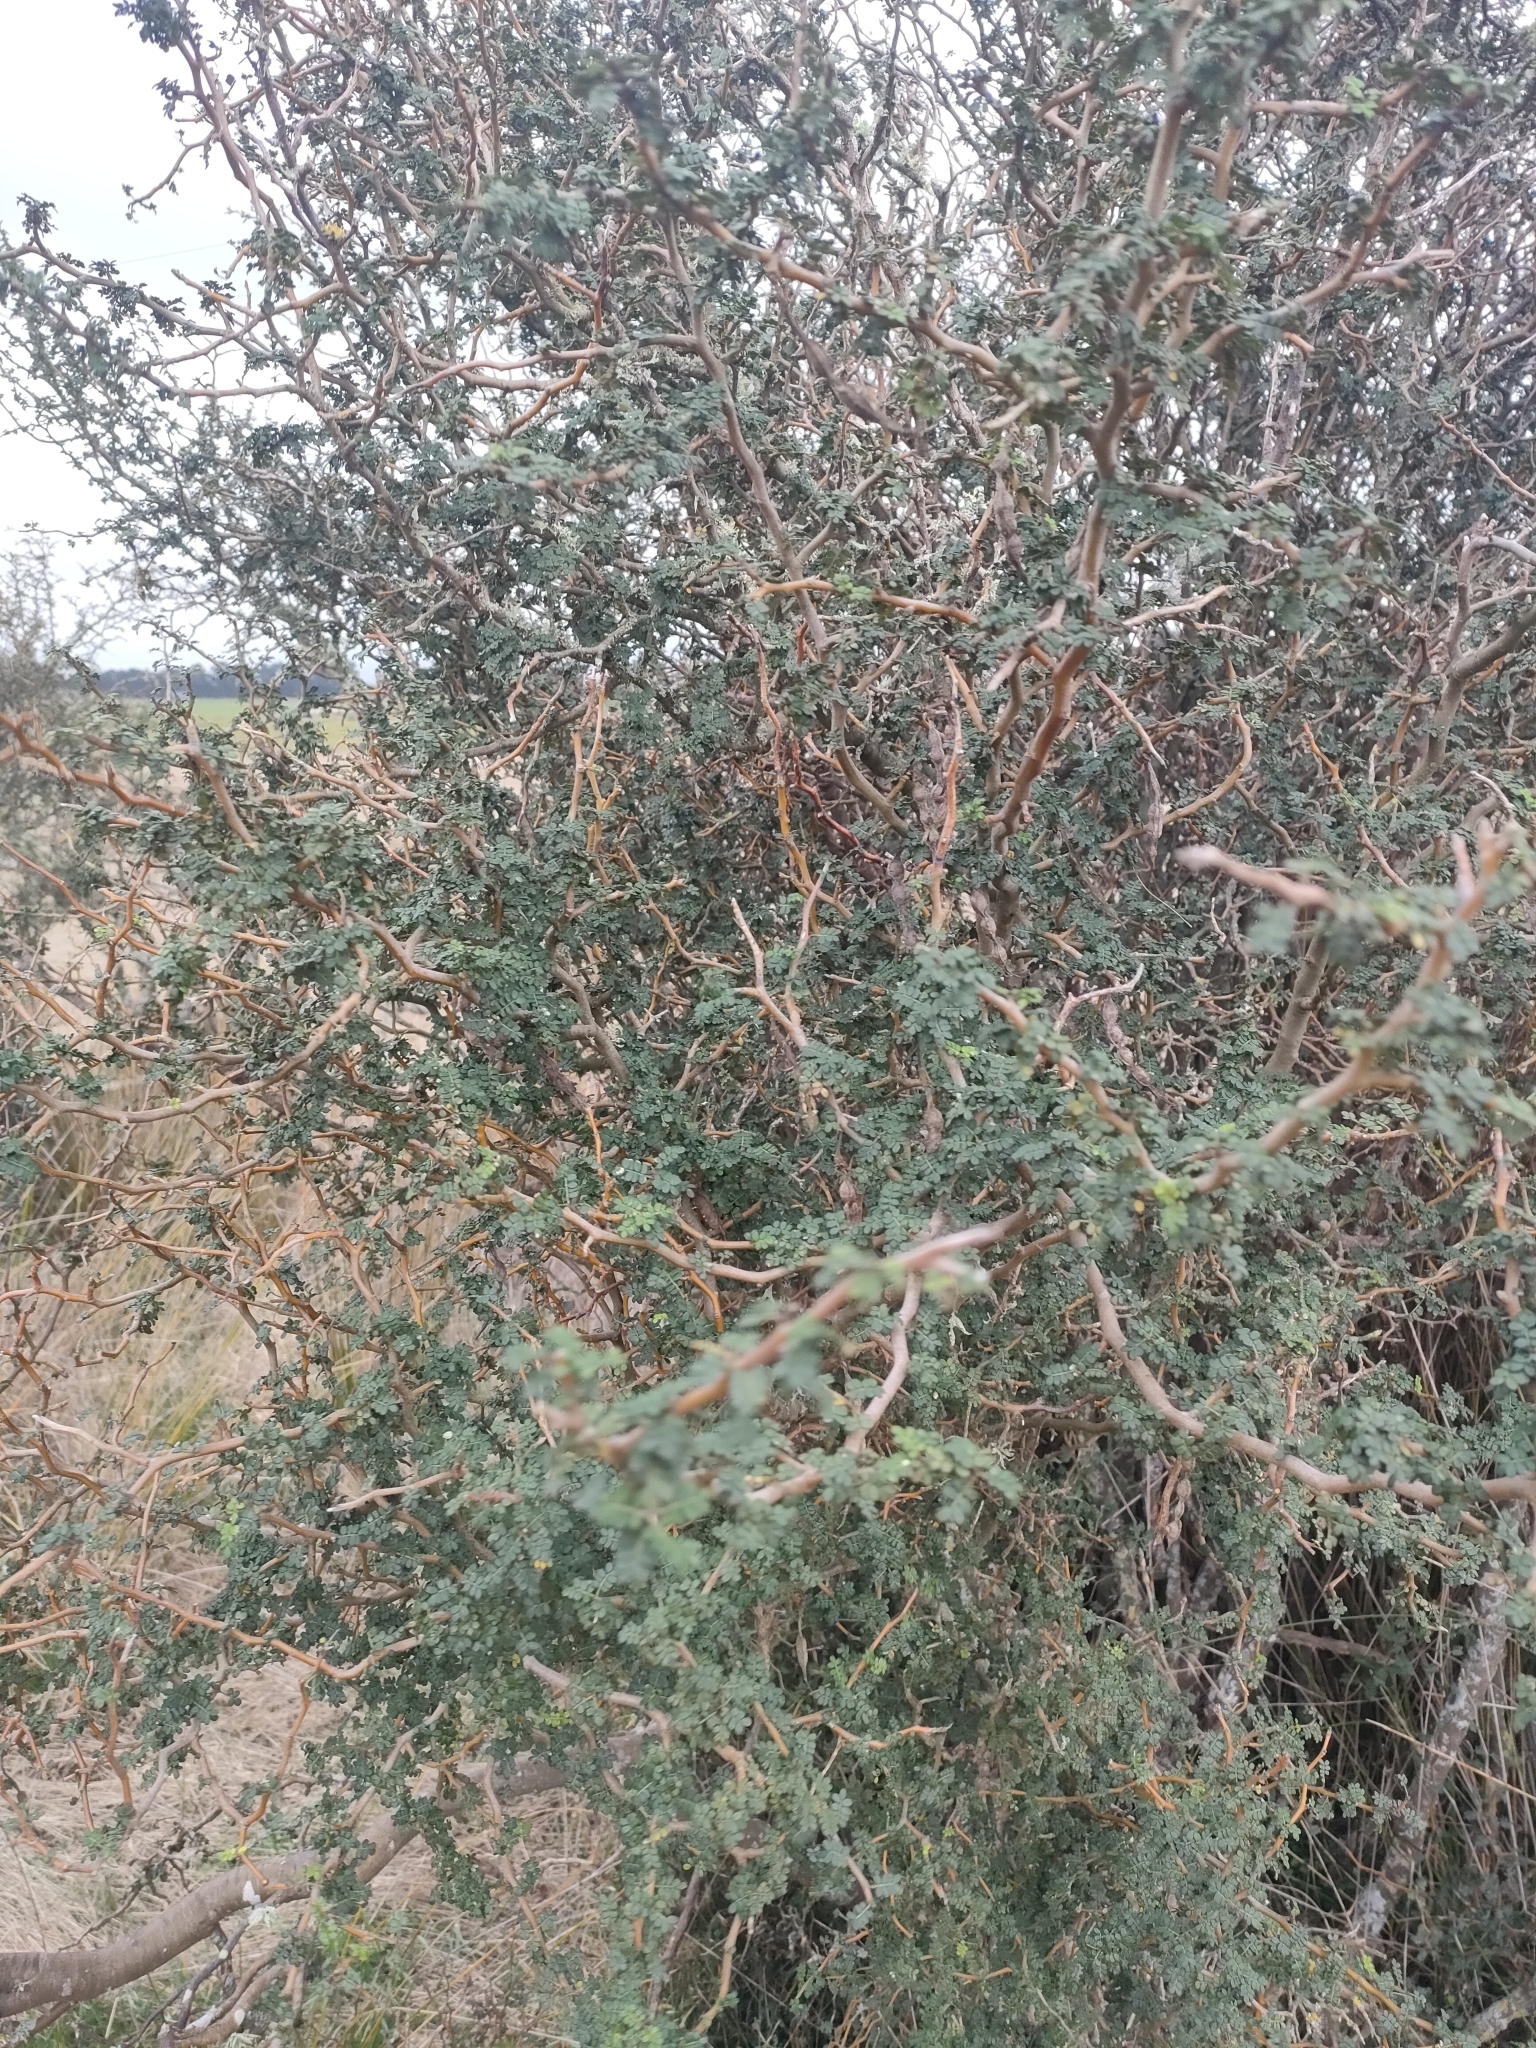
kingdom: Plantae
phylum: Tracheophyta
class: Magnoliopsida
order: Fabales
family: Fabaceae
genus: Sophora
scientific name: Sophora prostrata
